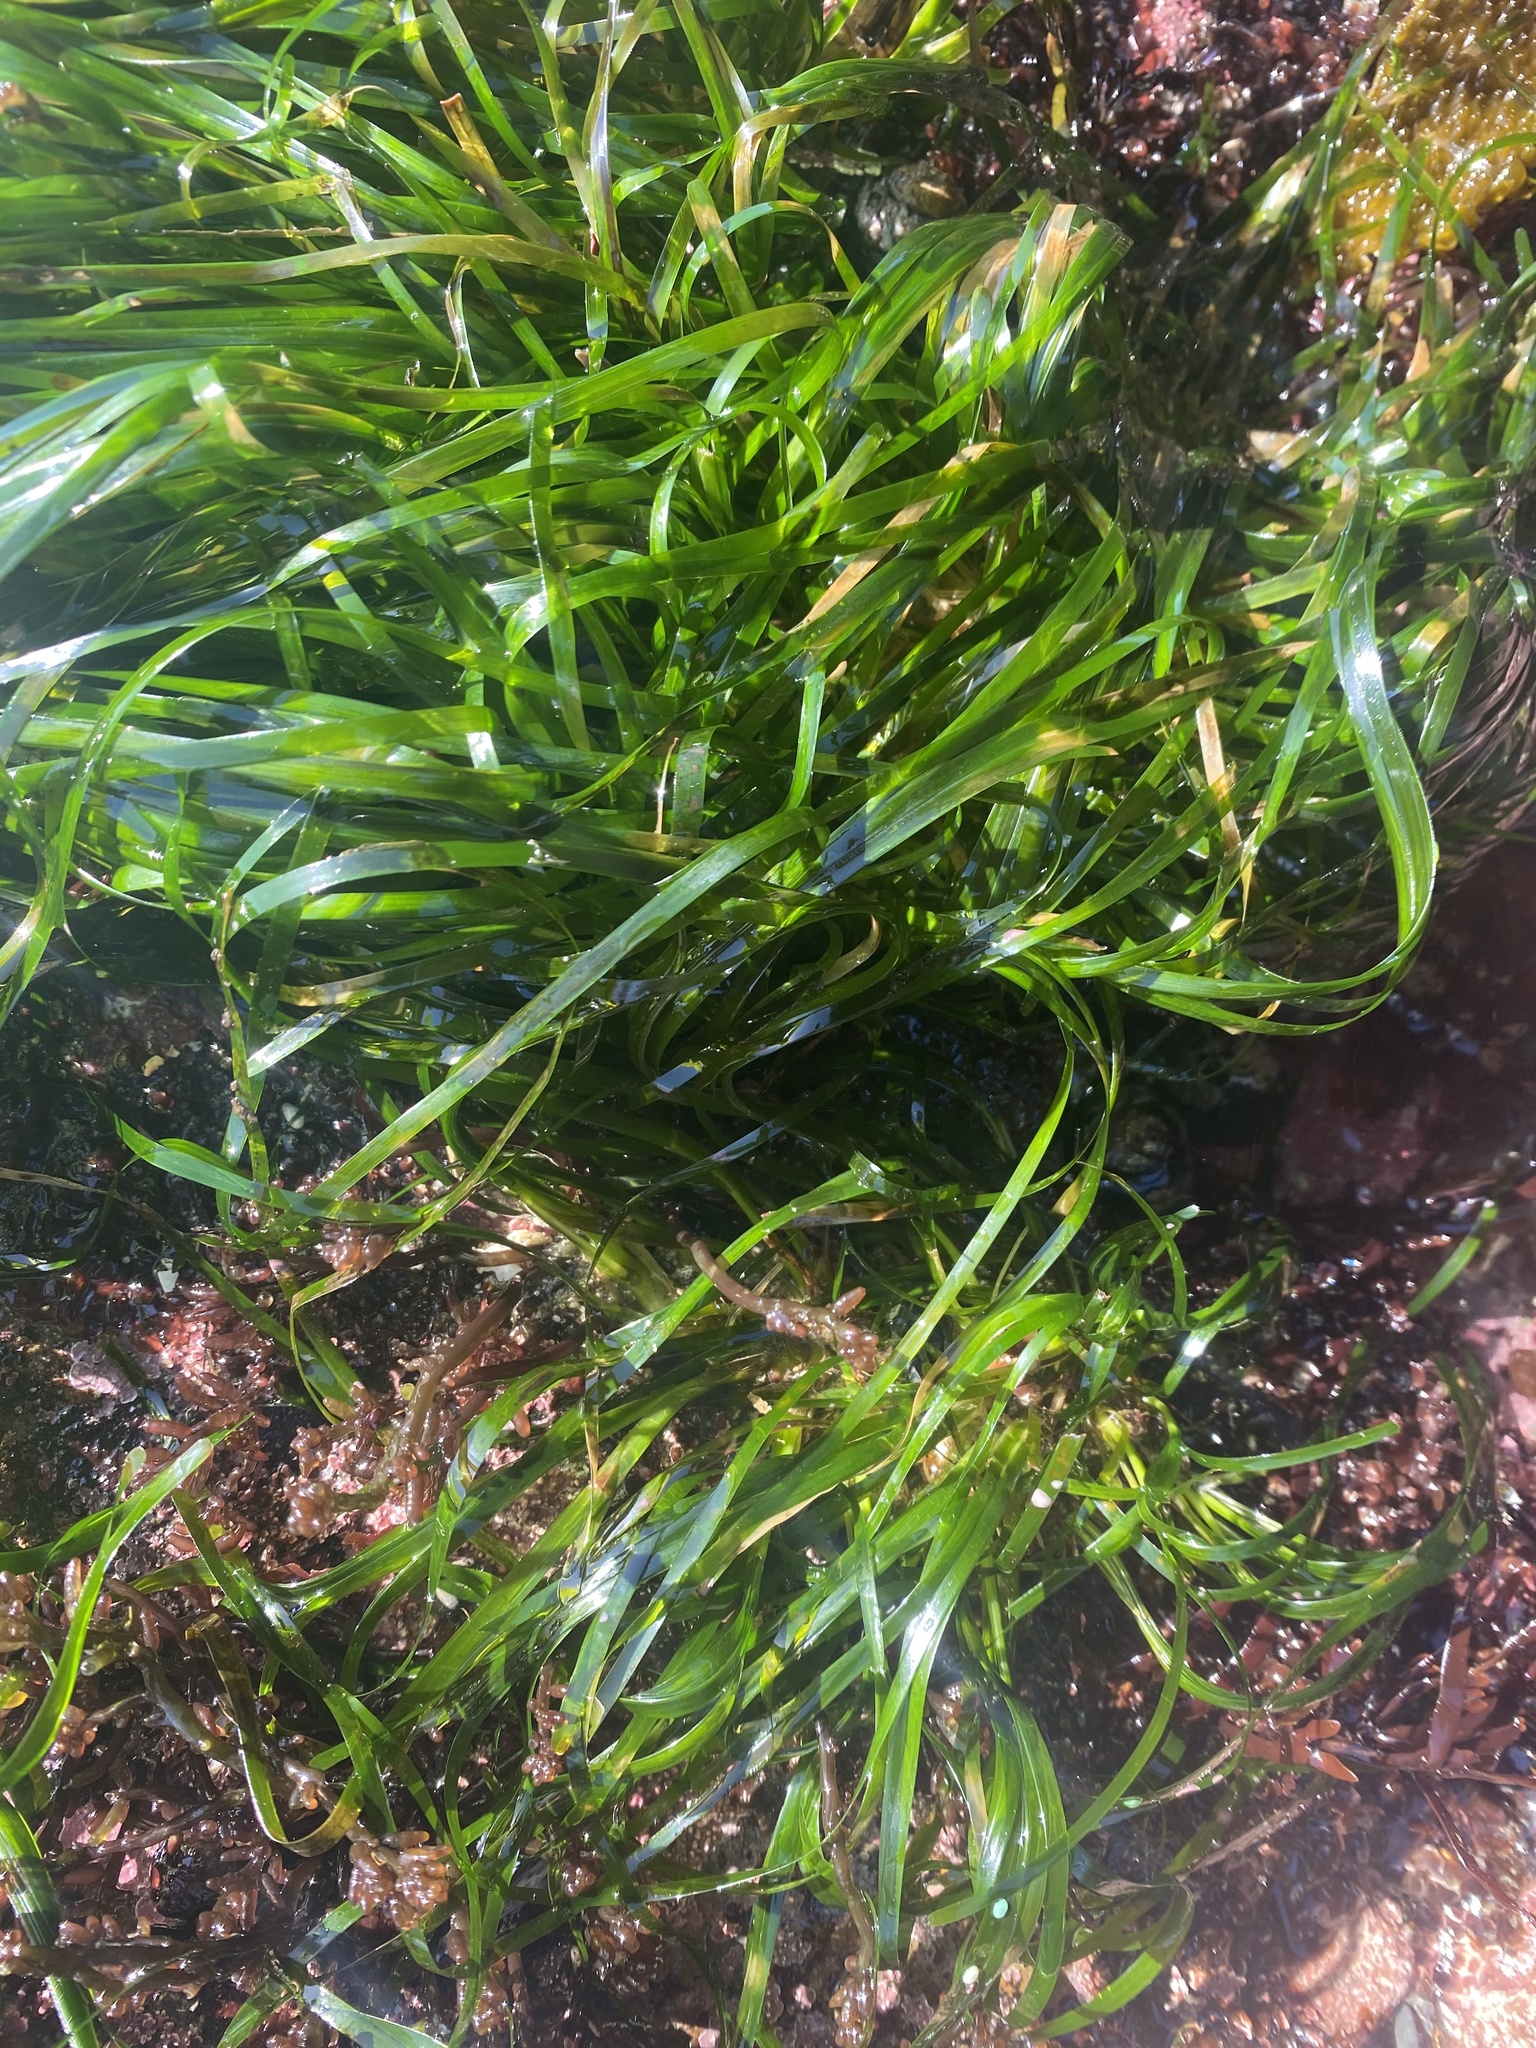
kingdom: Plantae
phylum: Tracheophyta
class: Liliopsida
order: Alismatales
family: Zosteraceae
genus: Phyllospadix
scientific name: Phyllospadix scouleri
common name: Species code: ps
